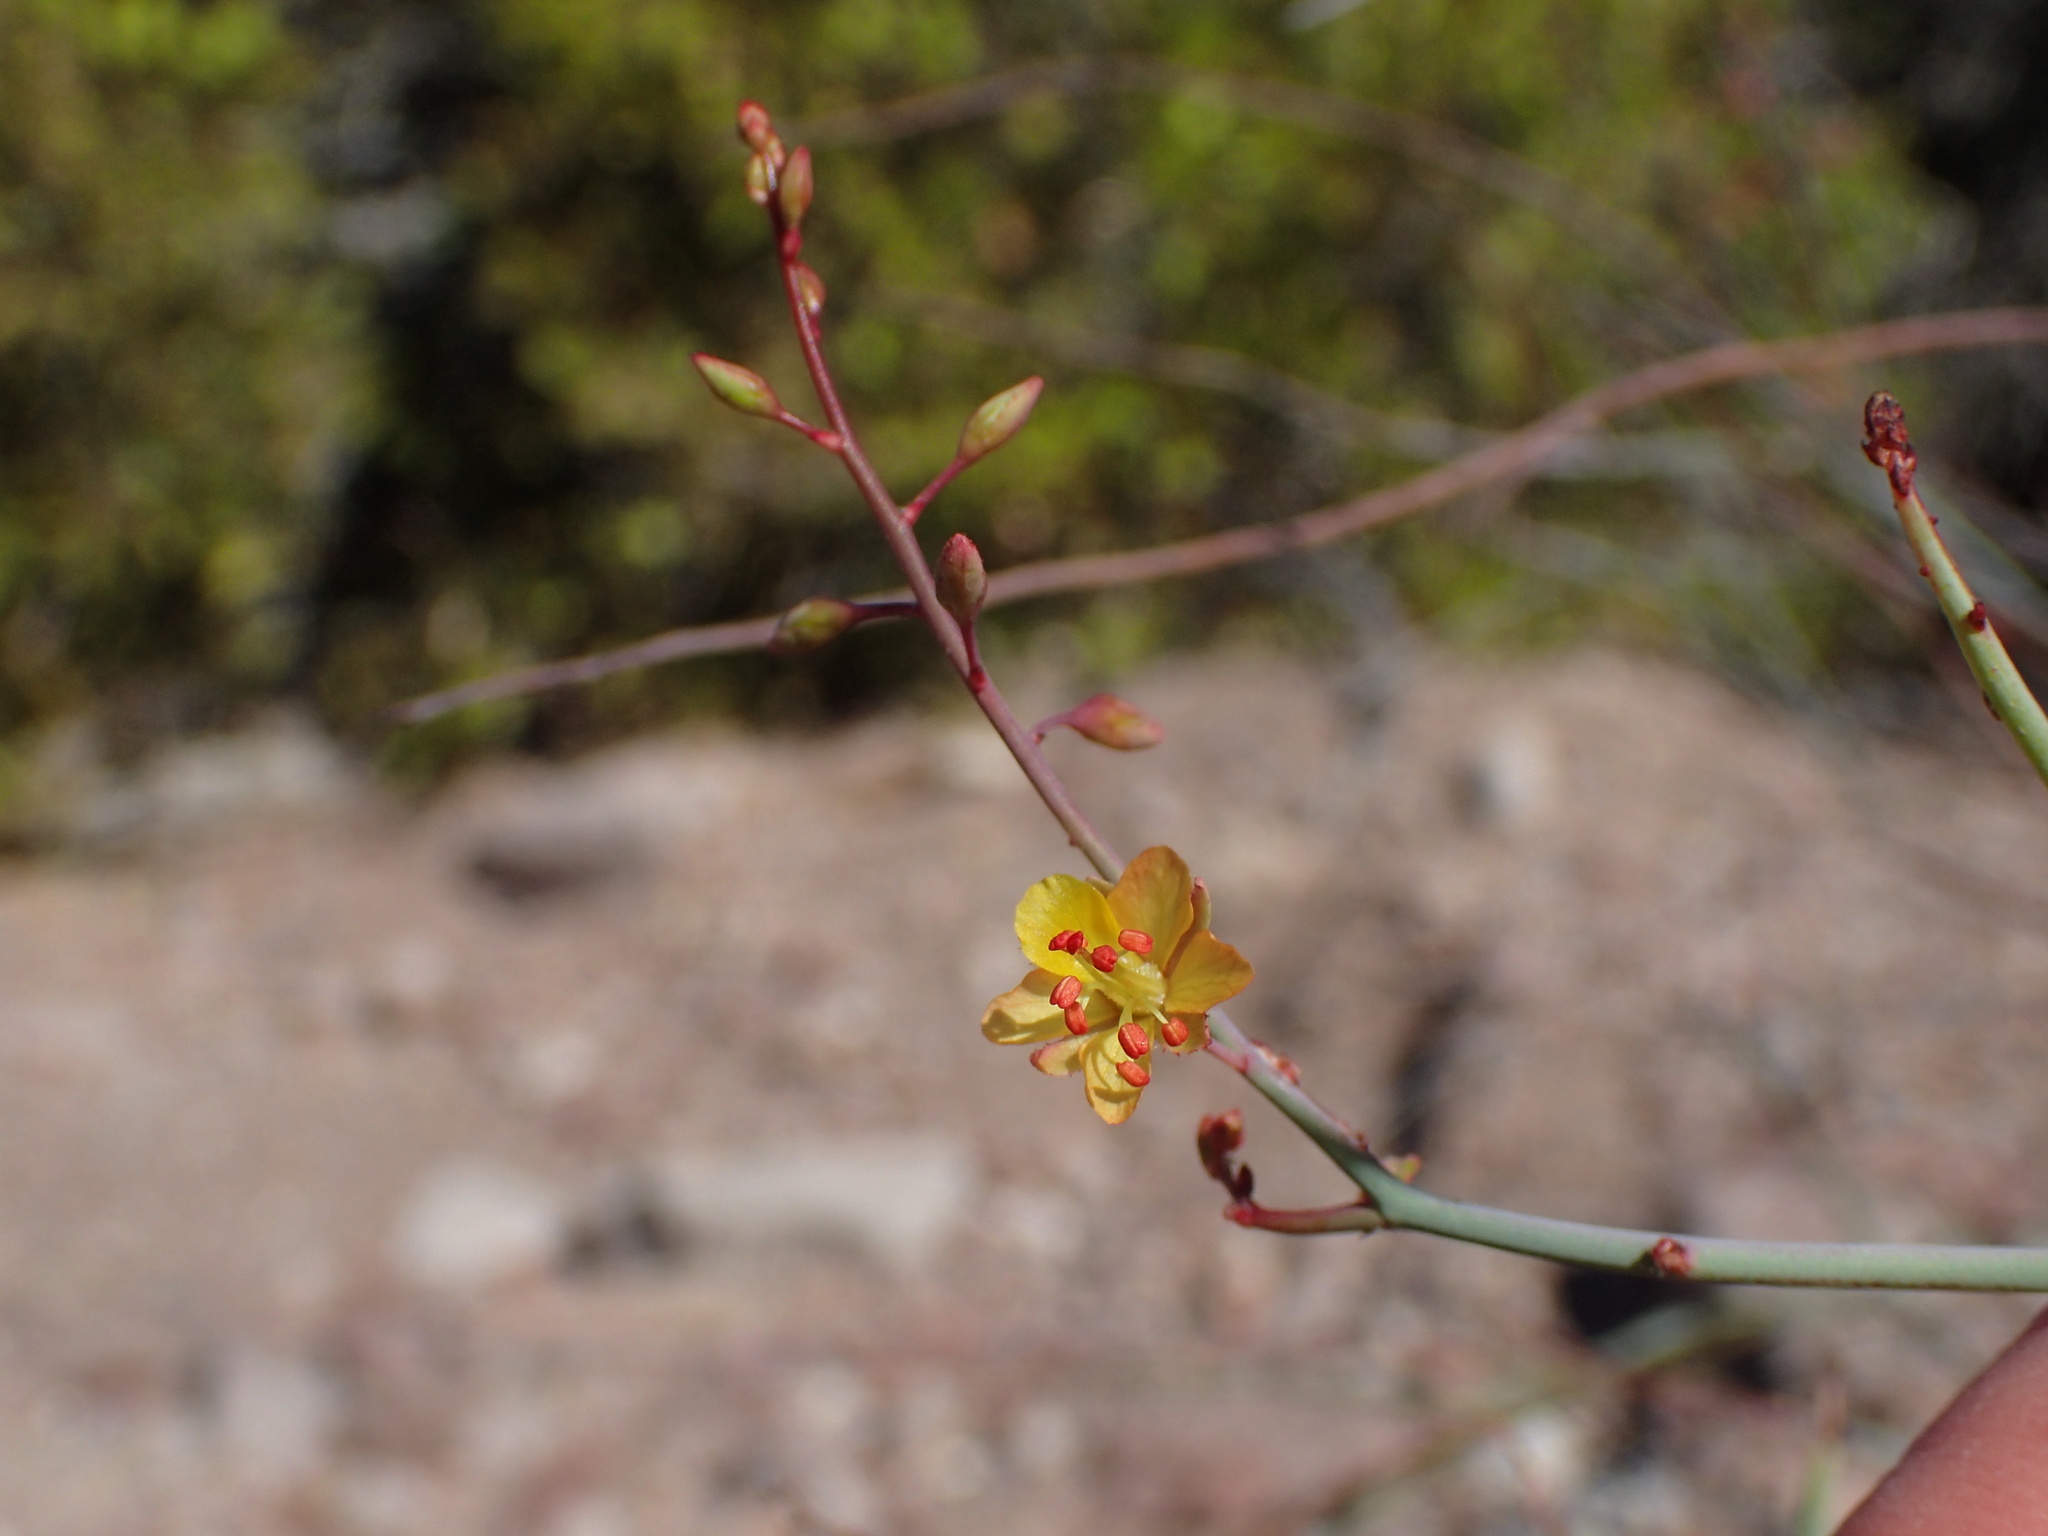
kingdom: Plantae
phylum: Tracheophyta
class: Magnoliopsida
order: Fabales
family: Fabaceae
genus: Hoffmannseggia
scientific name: Hoffmannseggia intricata
